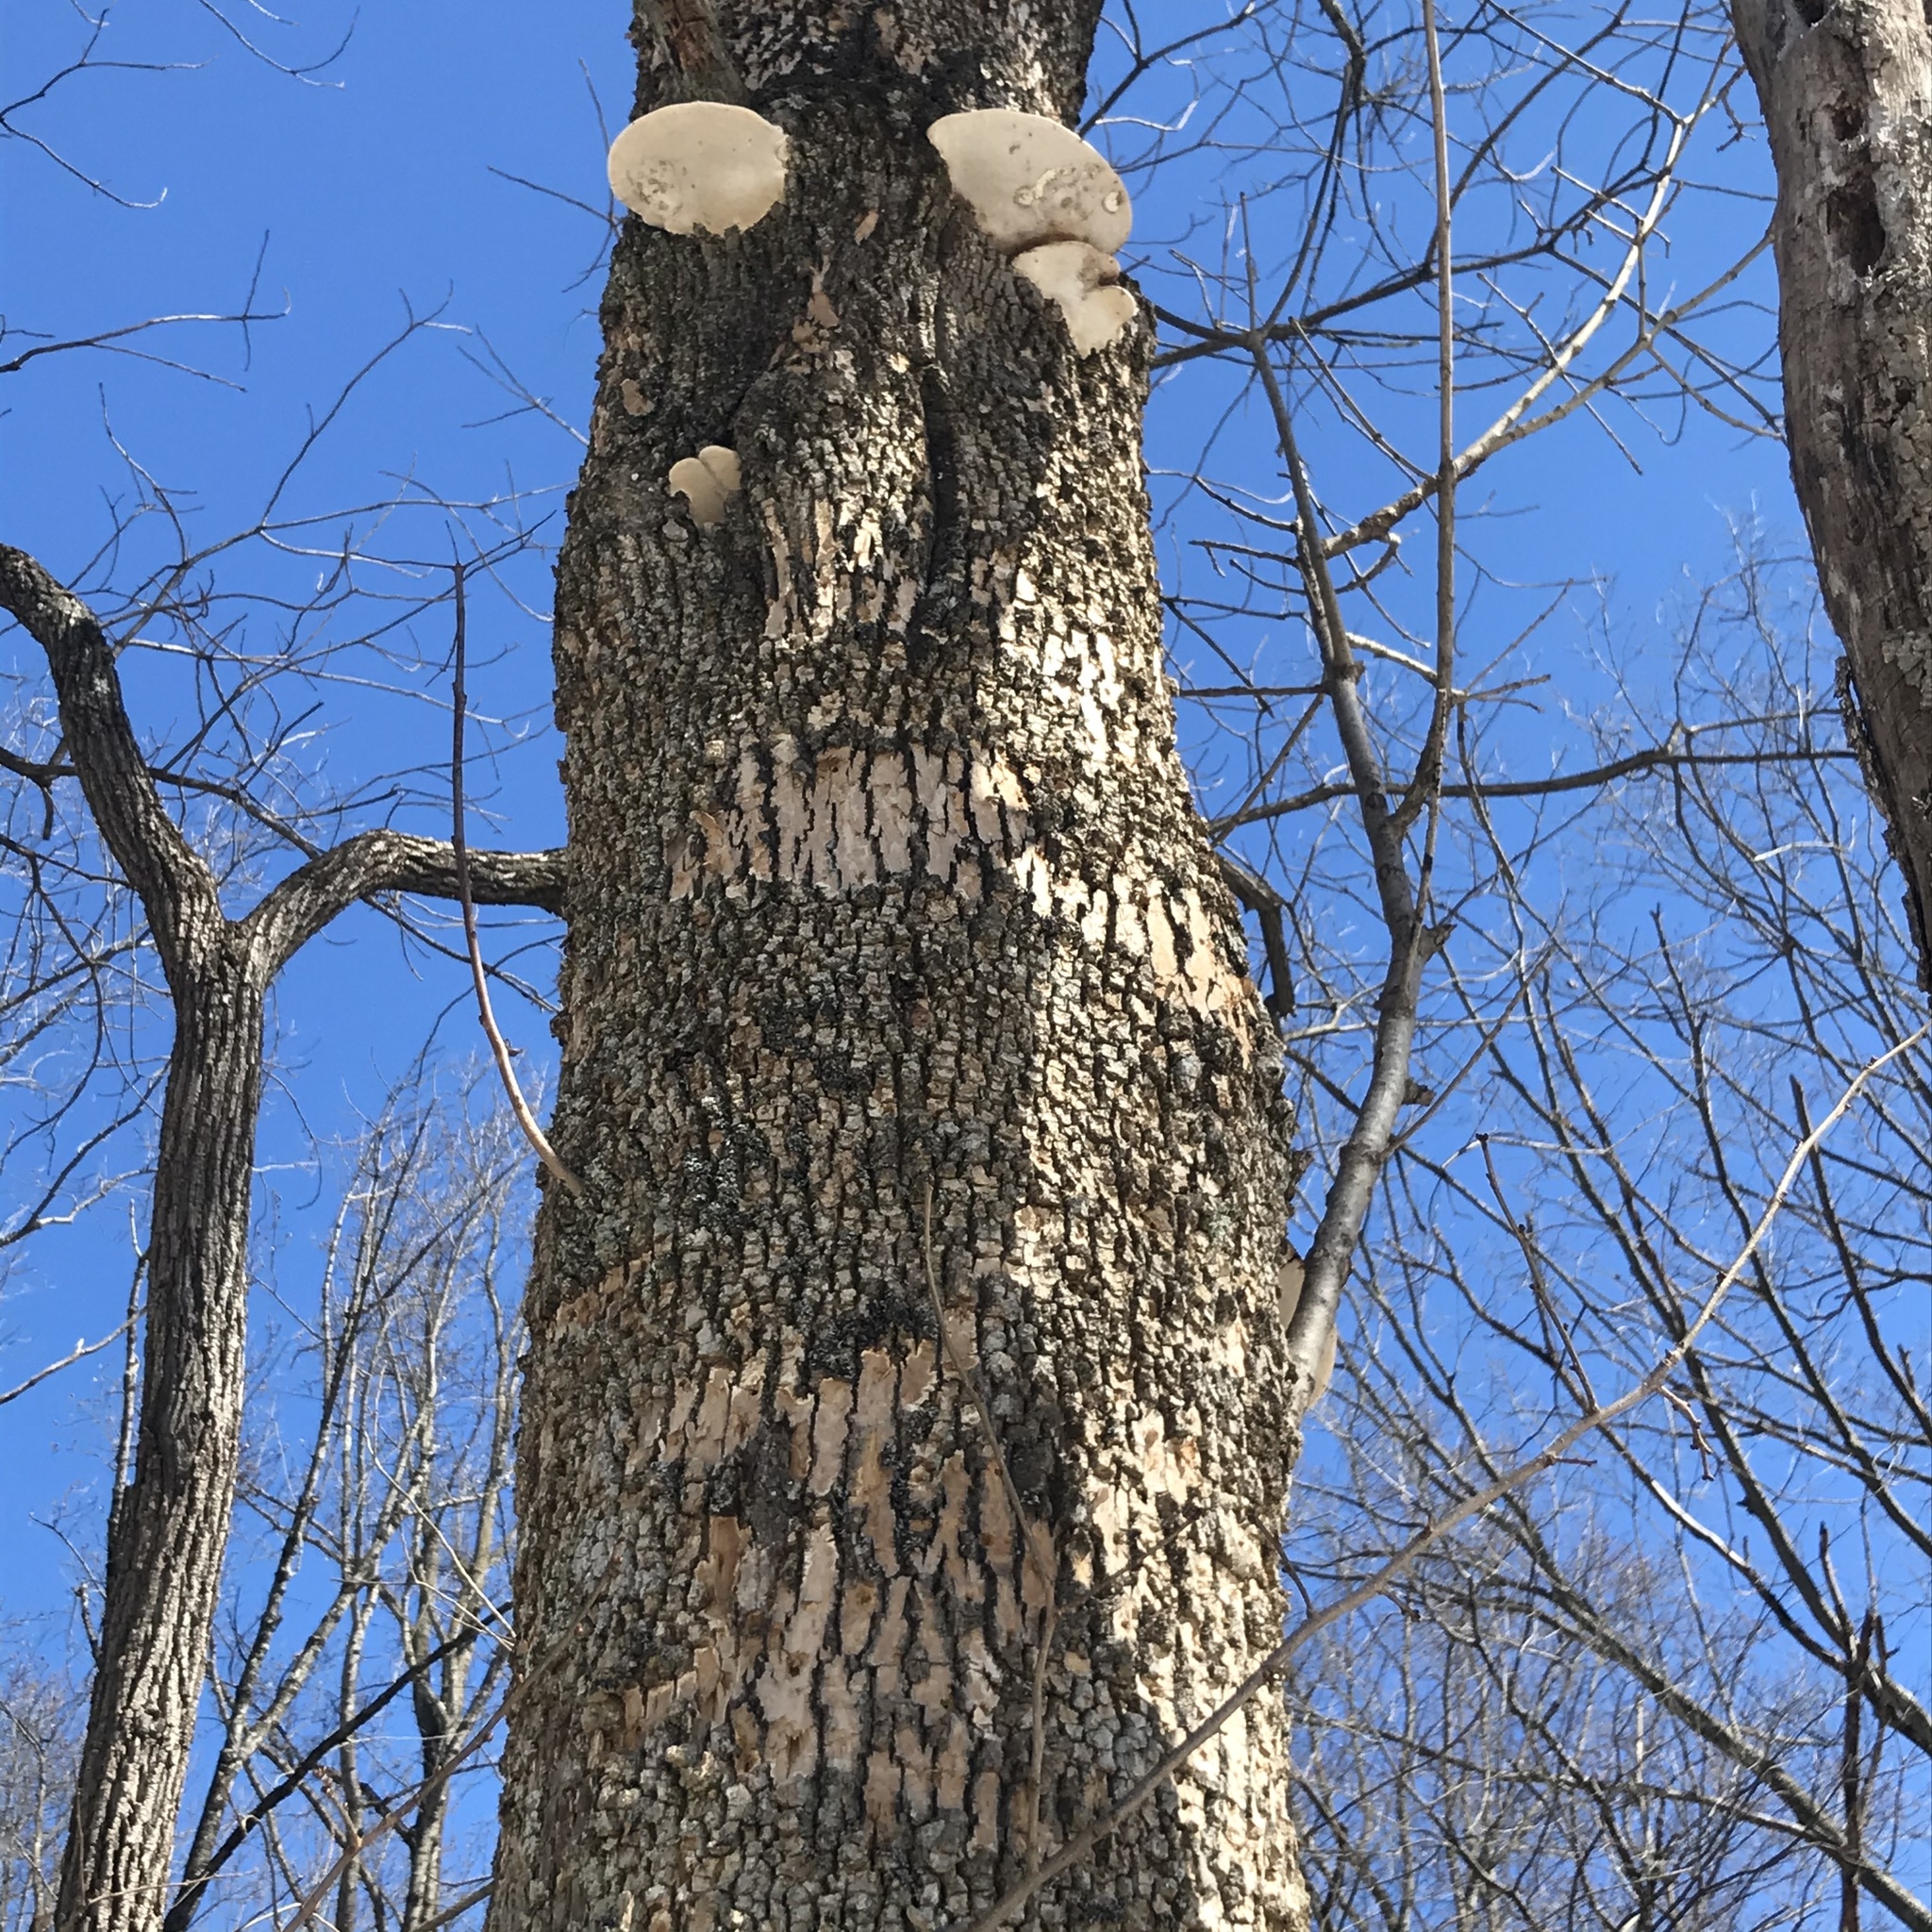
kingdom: Fungi
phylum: Basidiomycota
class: Agaricomycetes
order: Polyporales
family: Polyporaceae
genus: Perenniporia
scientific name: Perenniporia fraxinophila
